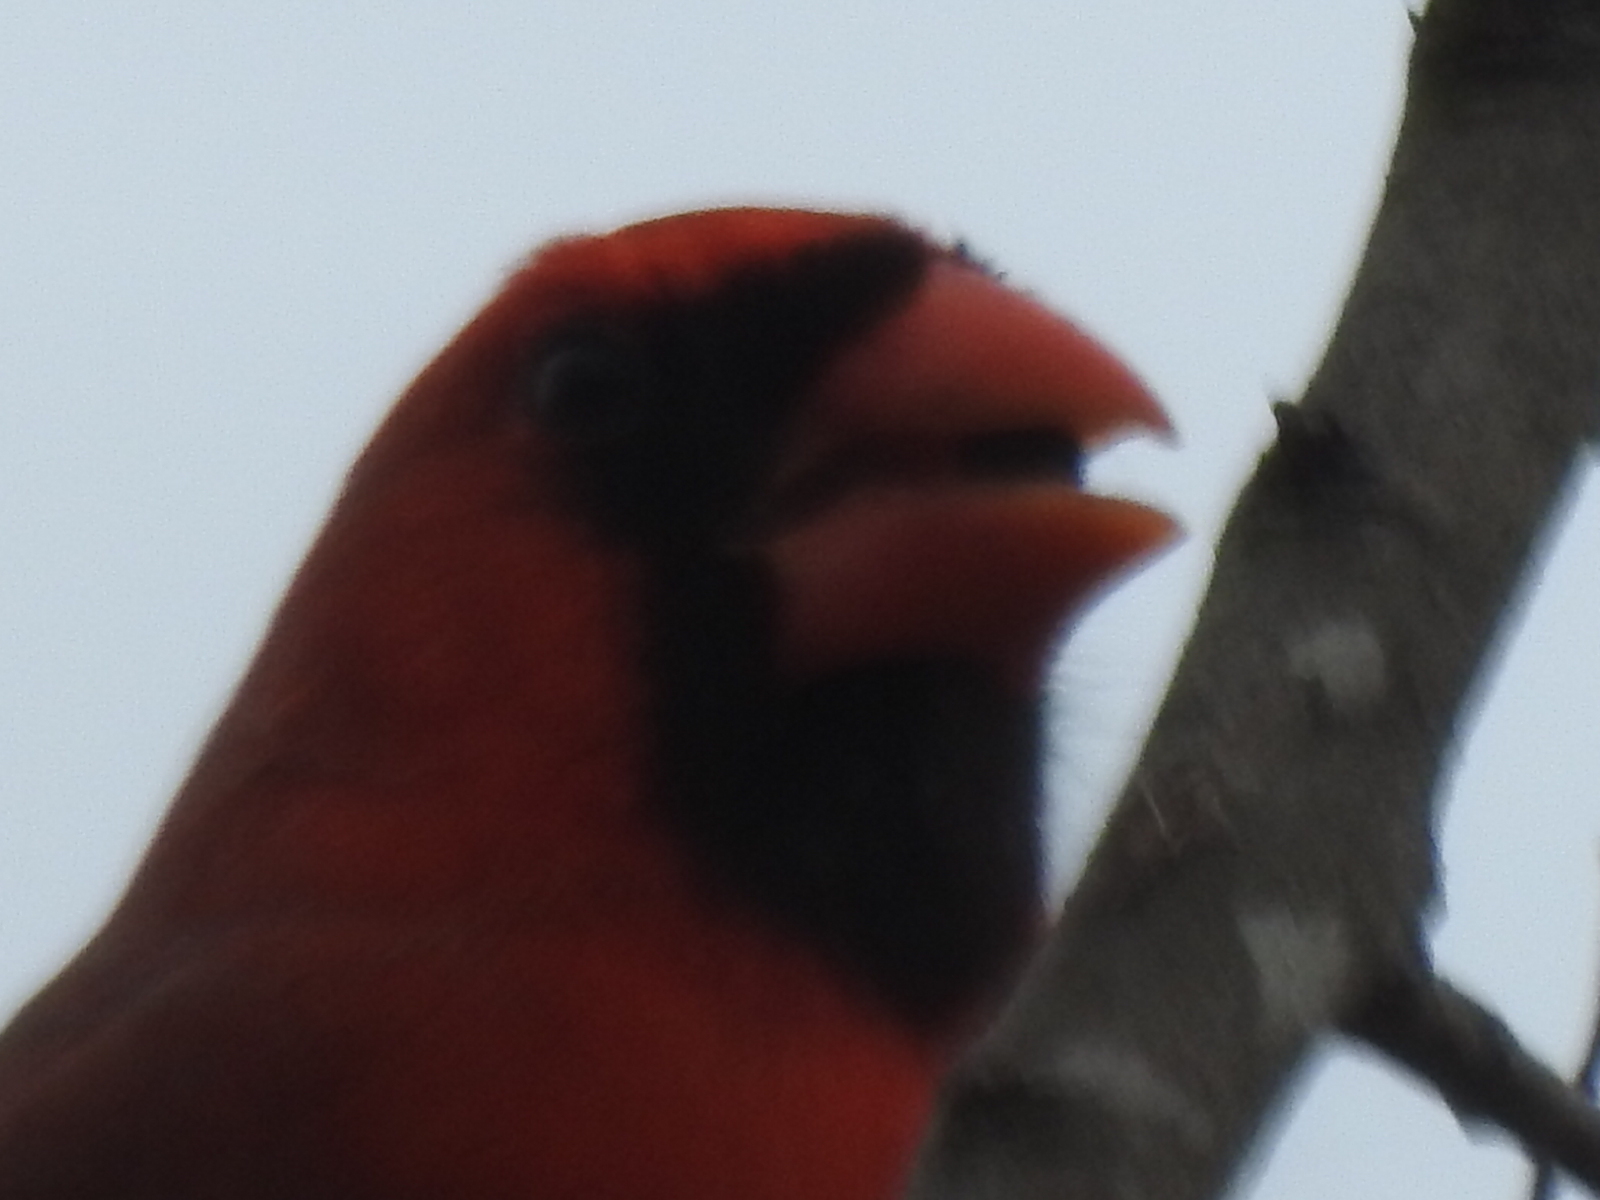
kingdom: Animalia
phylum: Chordata
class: Aves
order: Passeriformes
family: Cardinalidae
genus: Cardinalis
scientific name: Cardinalis cardinalis
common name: Northern cardinal
